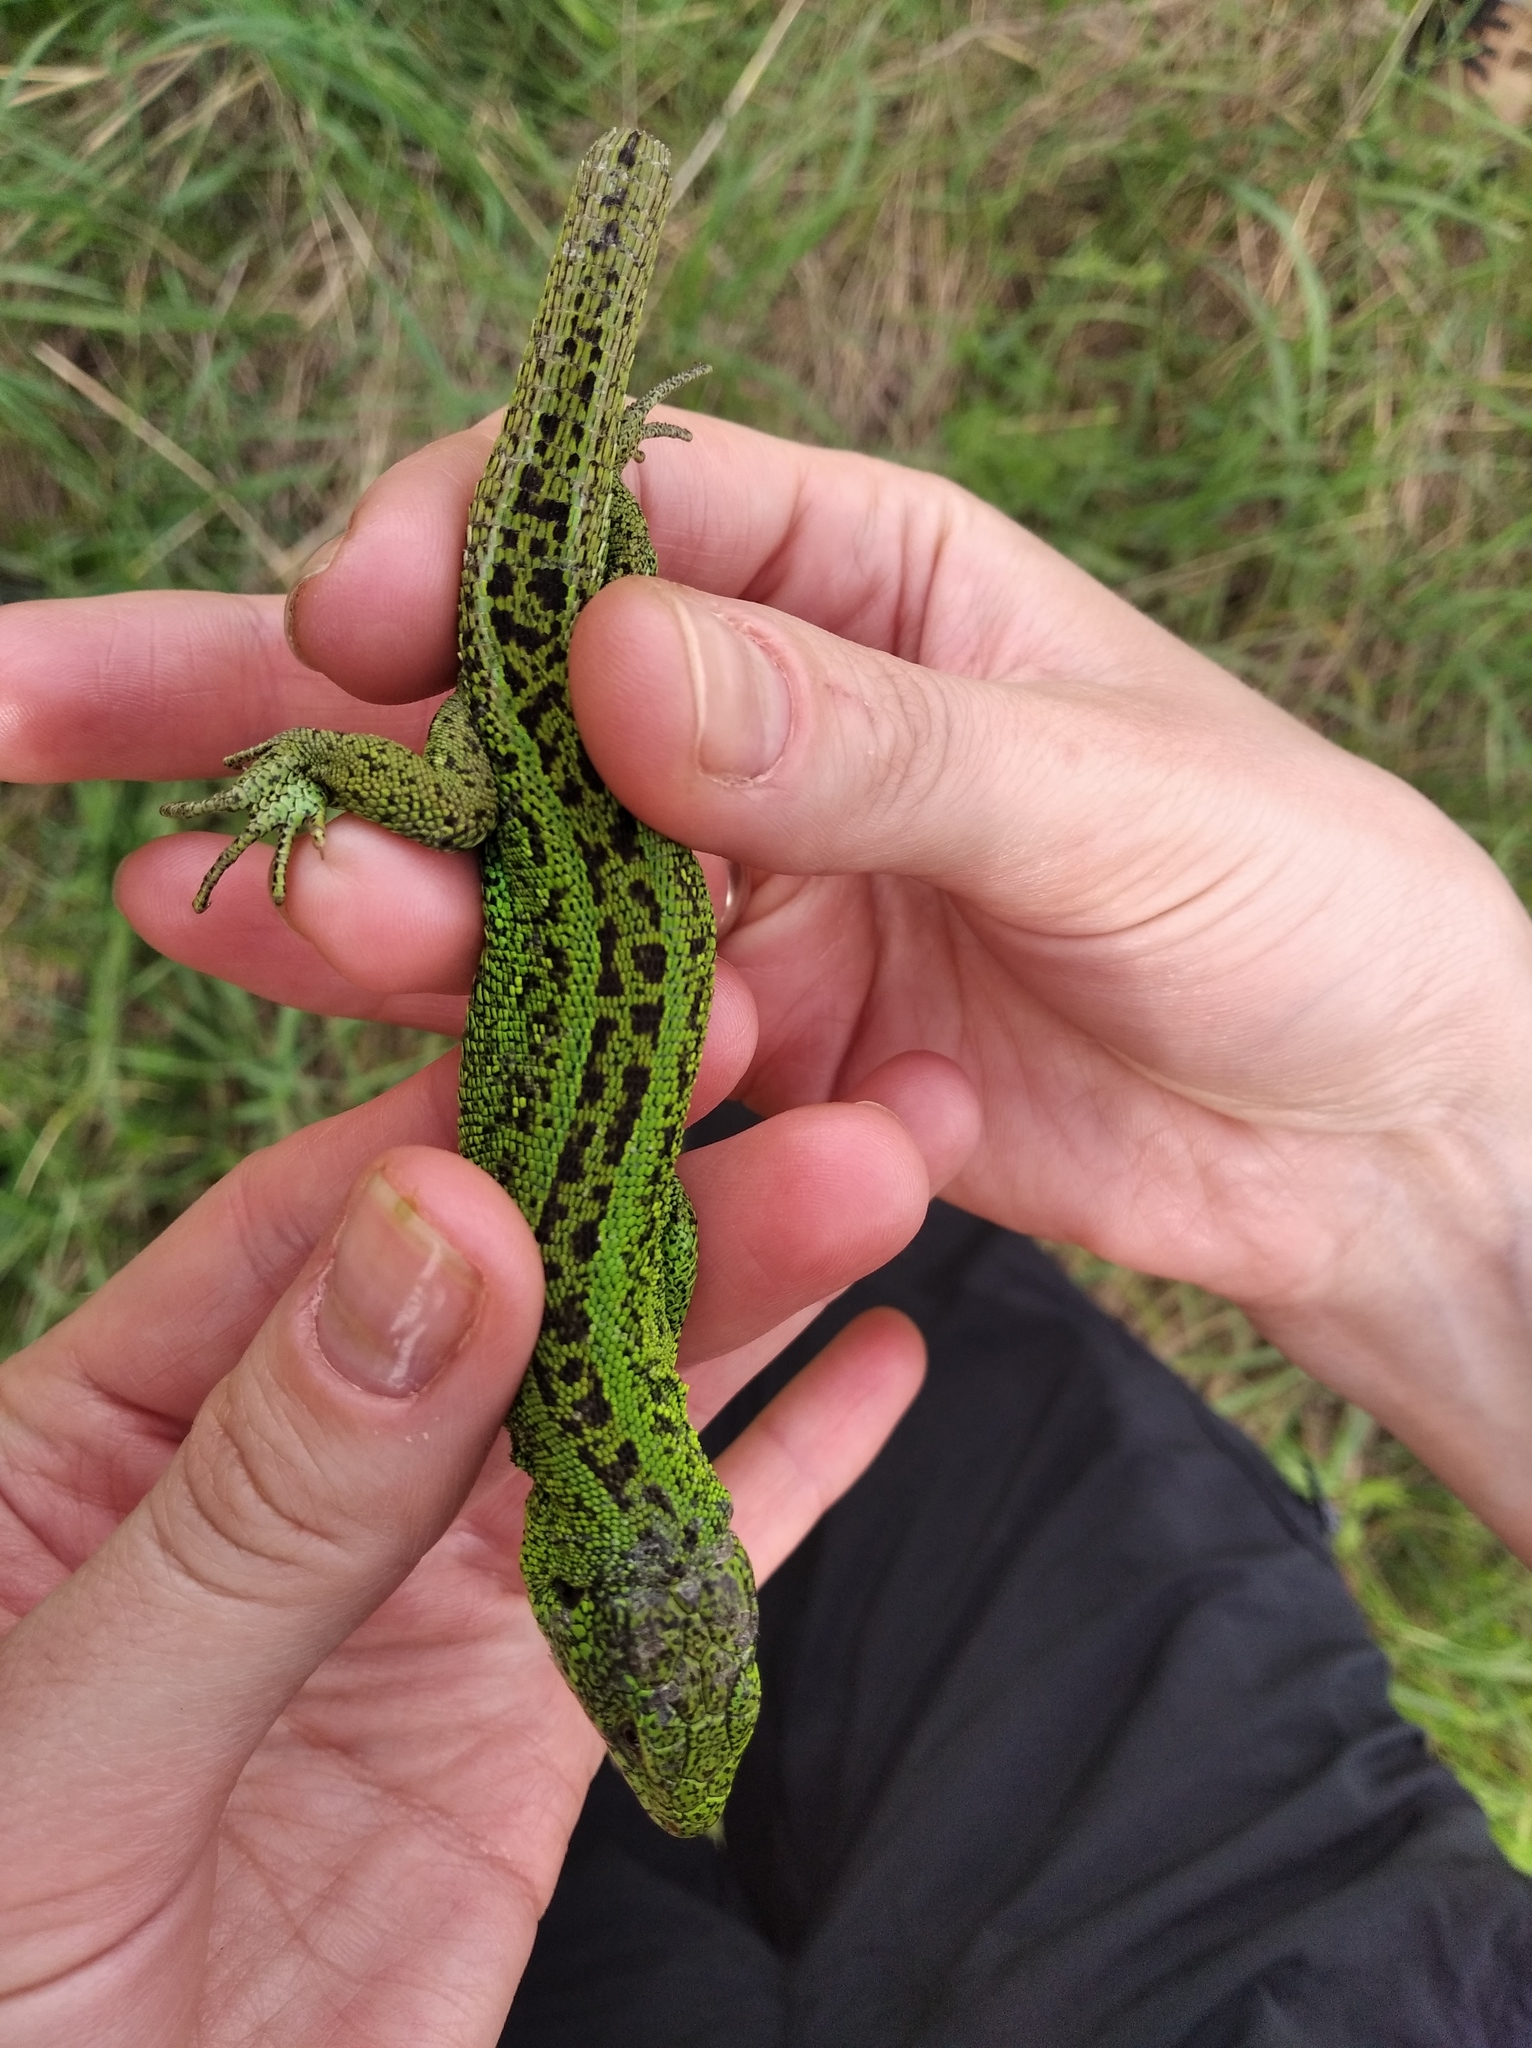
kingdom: Animalia
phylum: Chordata
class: Squamata
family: Lacertidae
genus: Lacerta
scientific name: Lacerta agilis
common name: Sand lizard
